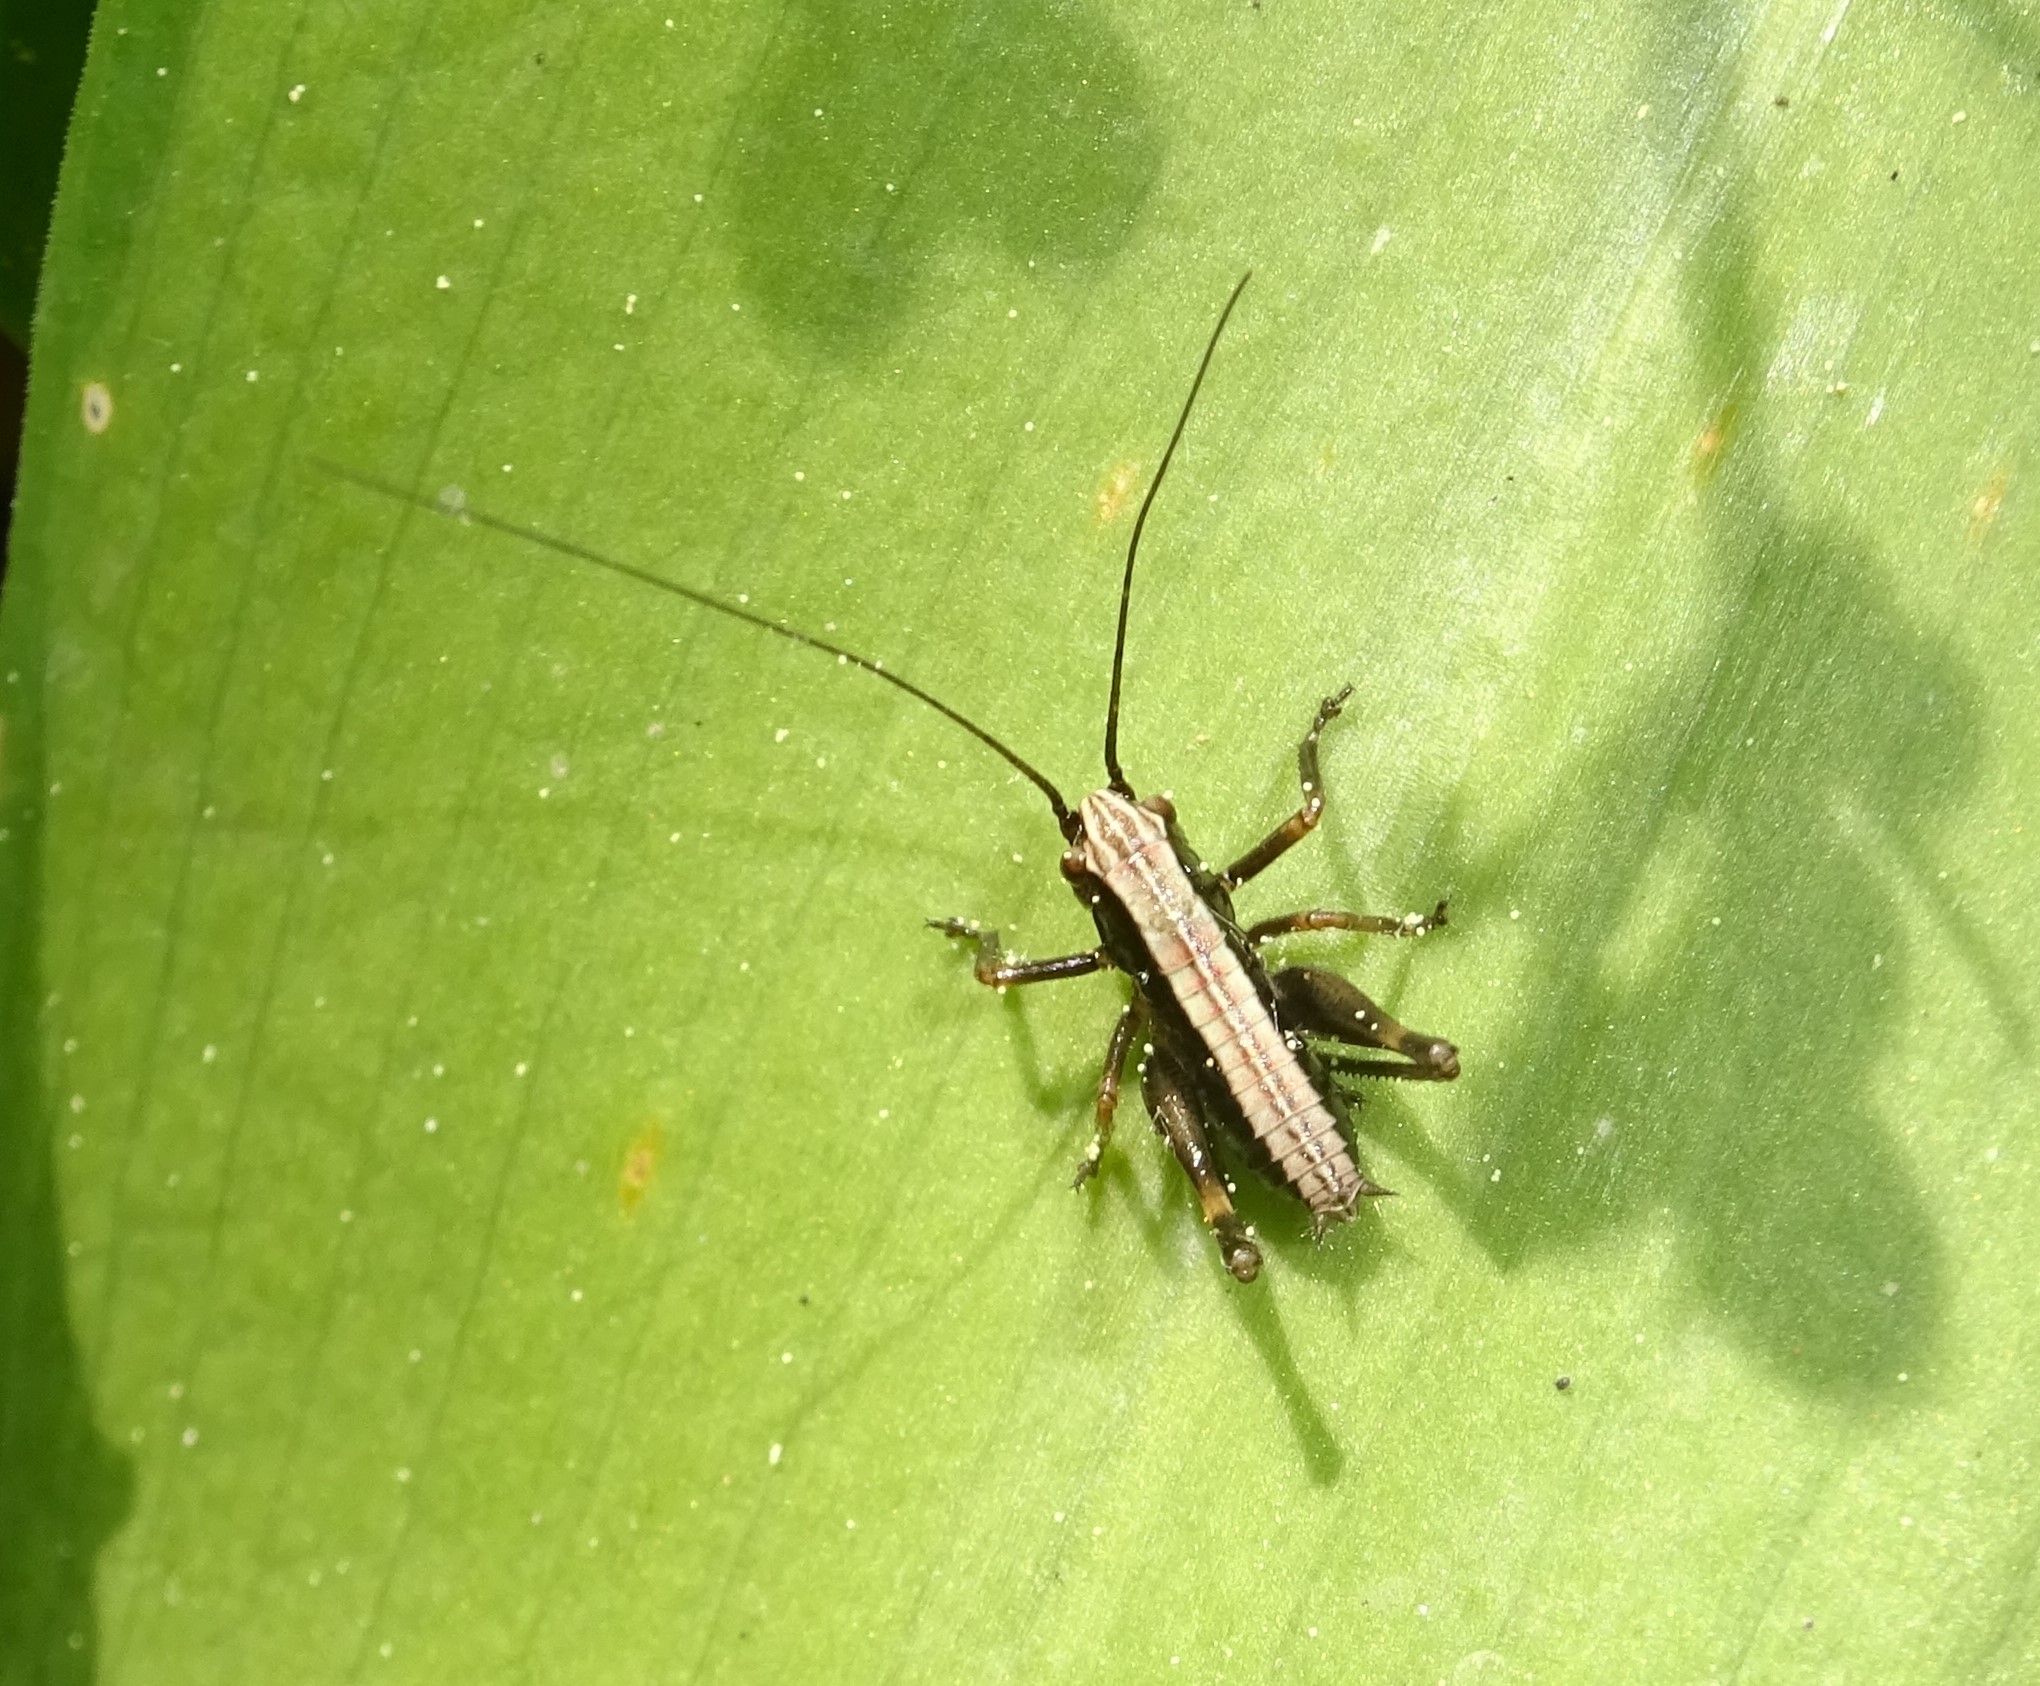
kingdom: Animalia
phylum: Arthropoda
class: Insecta
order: Orthoptera
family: Tettigoniidae
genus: Pholidoptera
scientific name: Pholidoptera griseoaptera
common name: Dark bush-cricket
